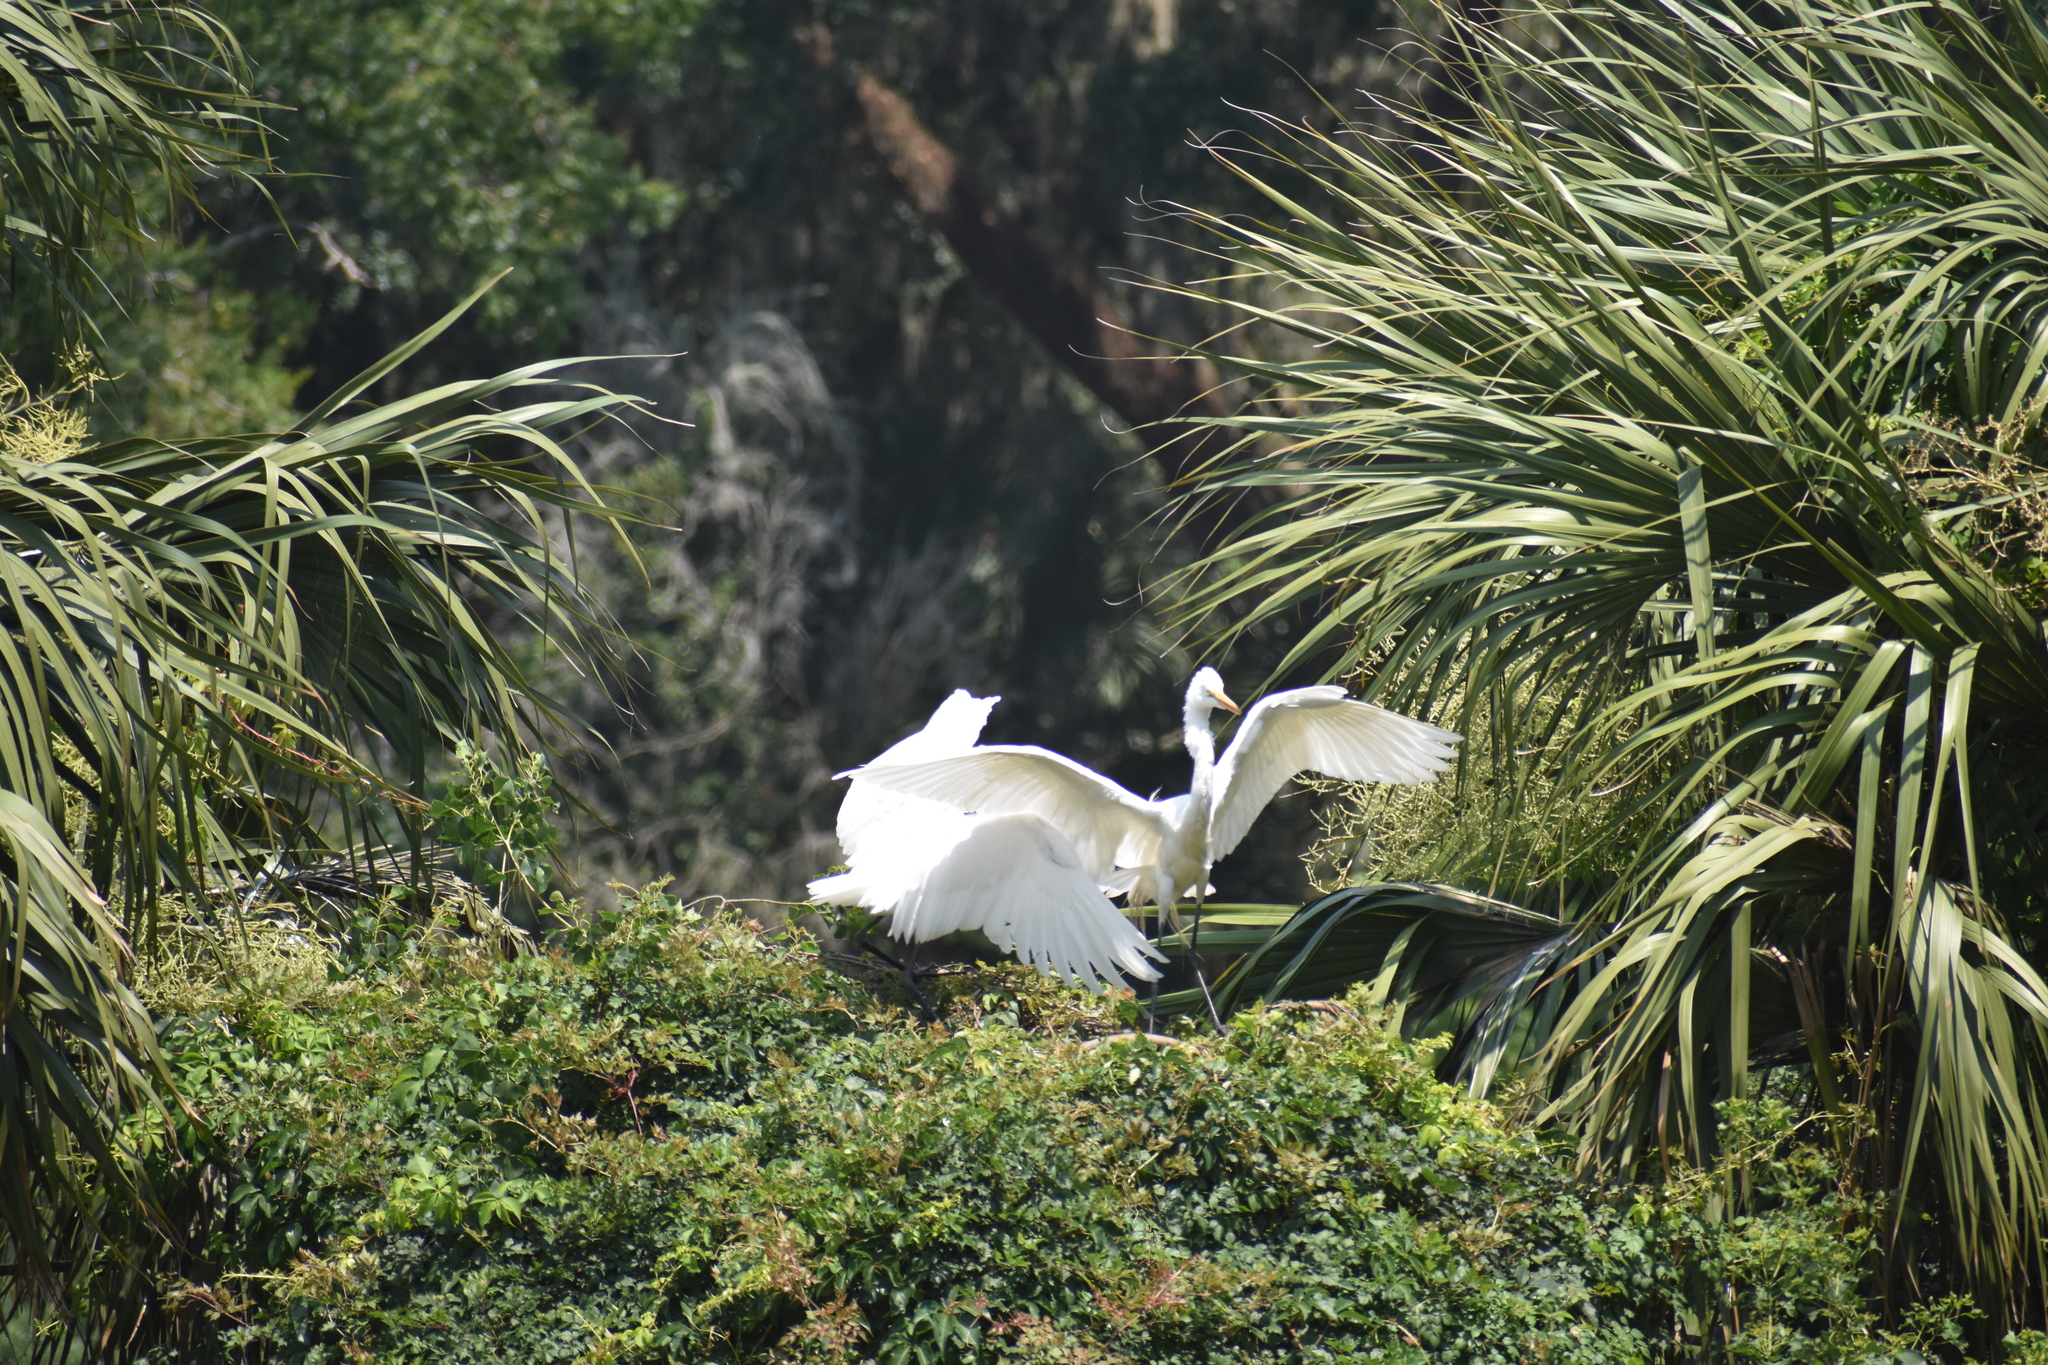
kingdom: Animalia
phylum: Chordata
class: Aves
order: Pelecaniformes
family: Ardeidae
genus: Ardea
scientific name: Ardea alba
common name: Great egret
